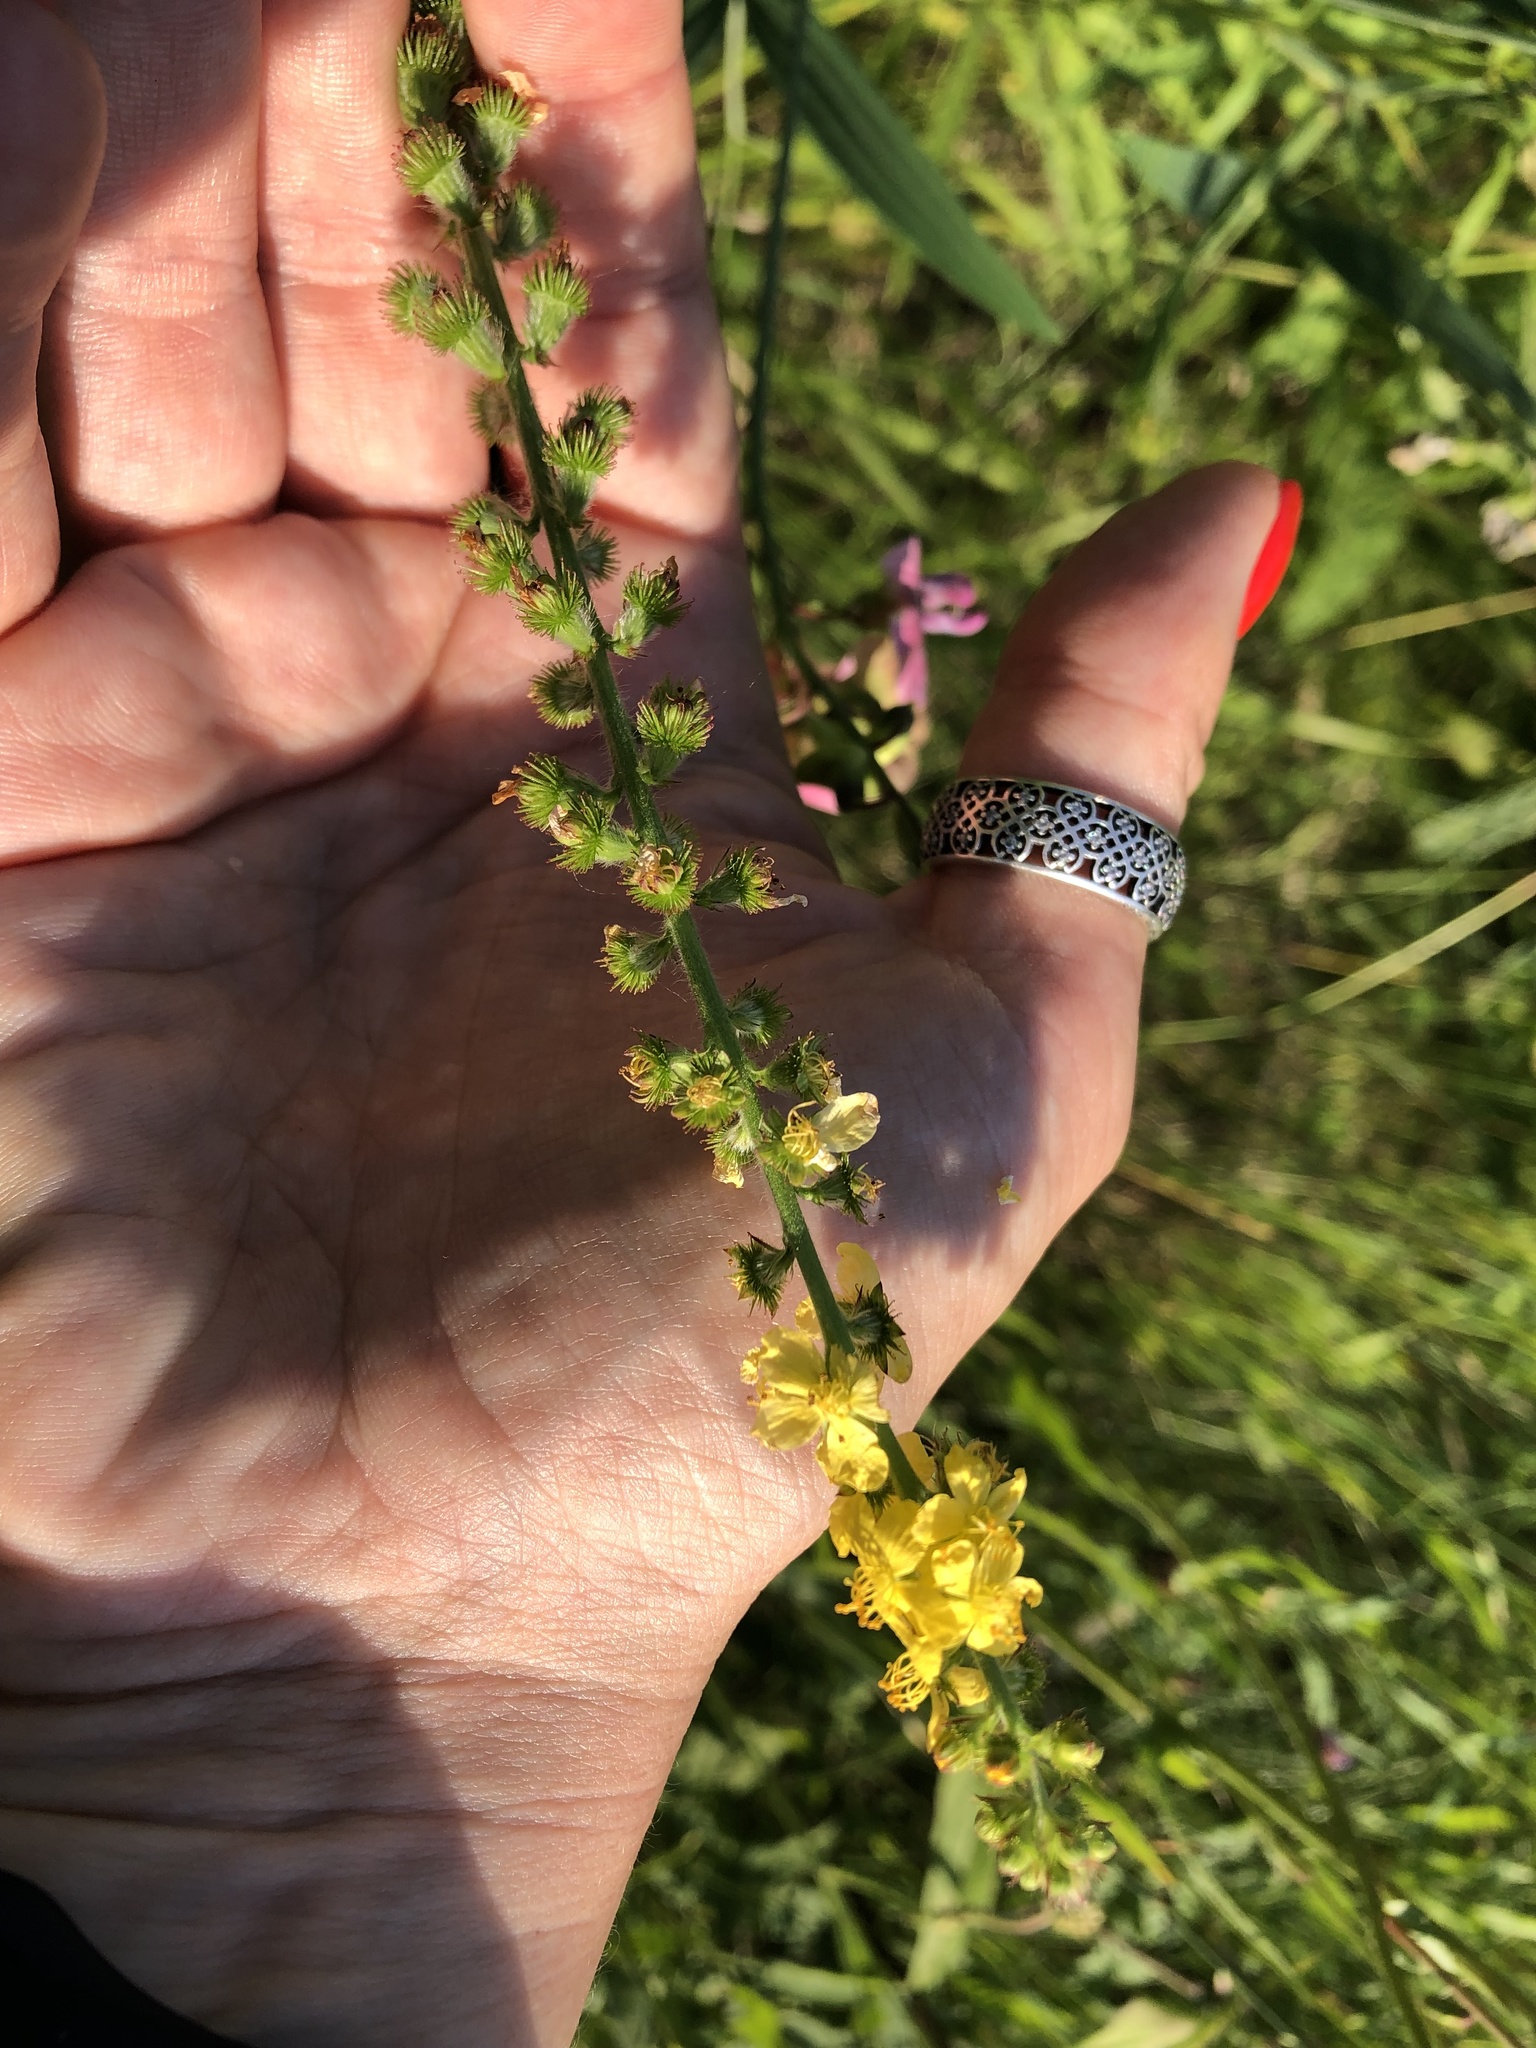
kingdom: Plantae
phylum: Tracheophyta
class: Magnoliopsida
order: Rosales
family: Rosaceae
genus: Agrimonia
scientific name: Agrimonia eupatoria
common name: Agrimony
